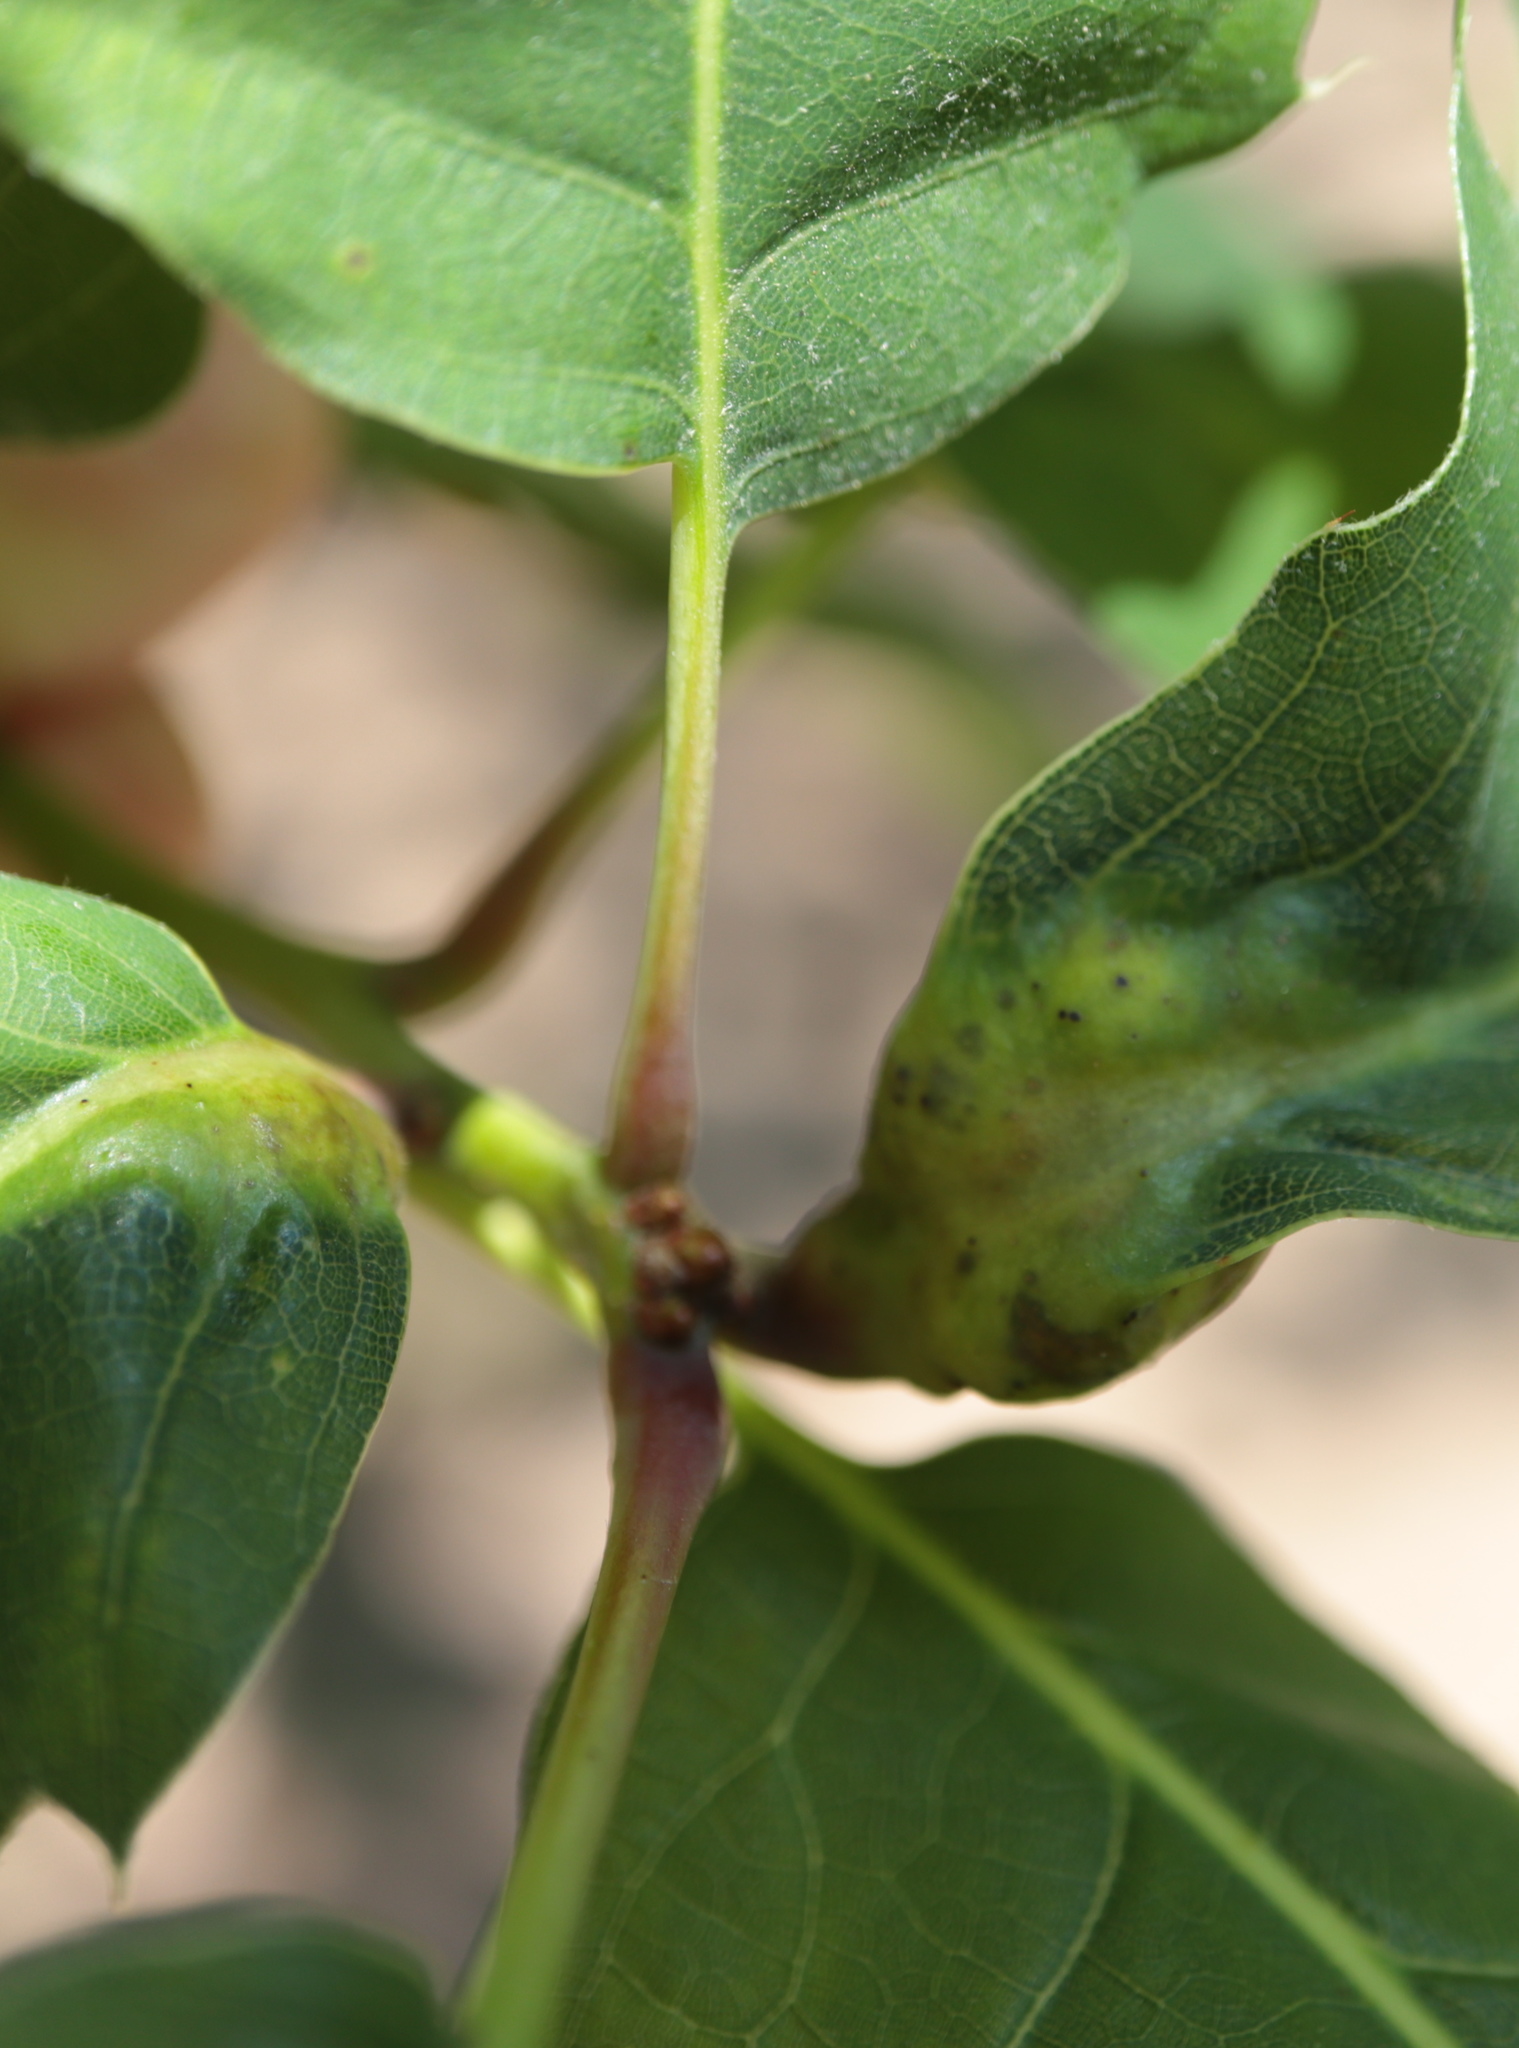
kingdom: Animalia
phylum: Arthropoda
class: Insecta
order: Hymenoptera
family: Cynipidae
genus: Melikaiella
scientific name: Melikaiella tumifica
